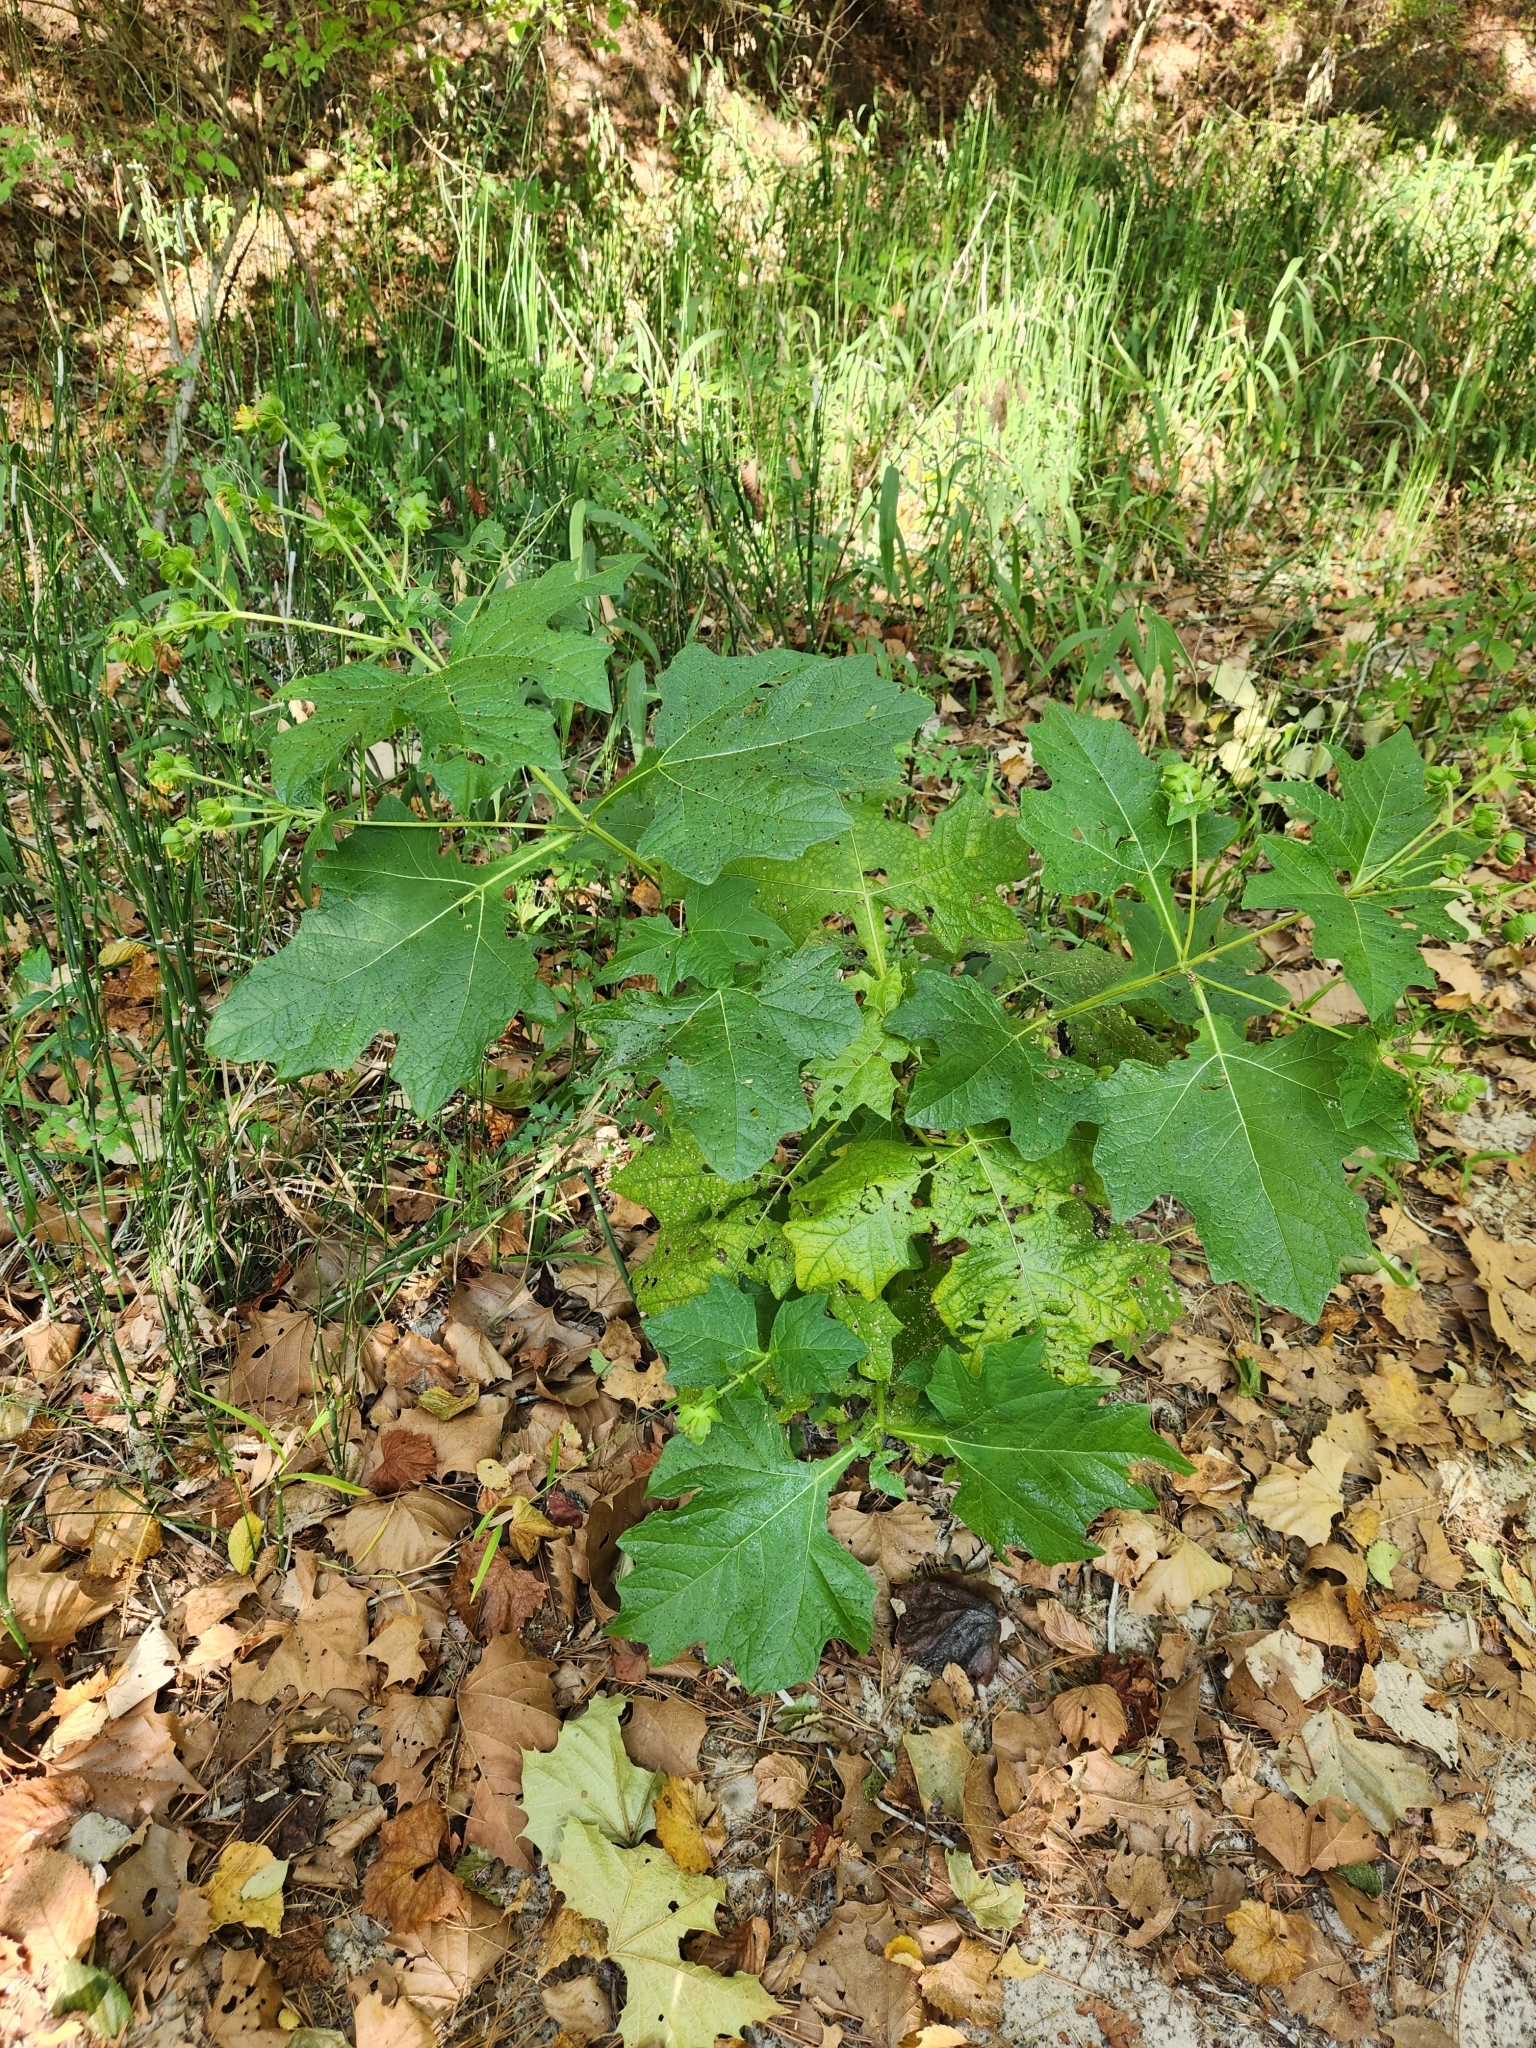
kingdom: Plantae
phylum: Tracheophyta
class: Magnoliopsida
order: Asterales
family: Asteraceae
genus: Smallanthus
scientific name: Smallanthus uvedalia
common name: Bear's-foot
